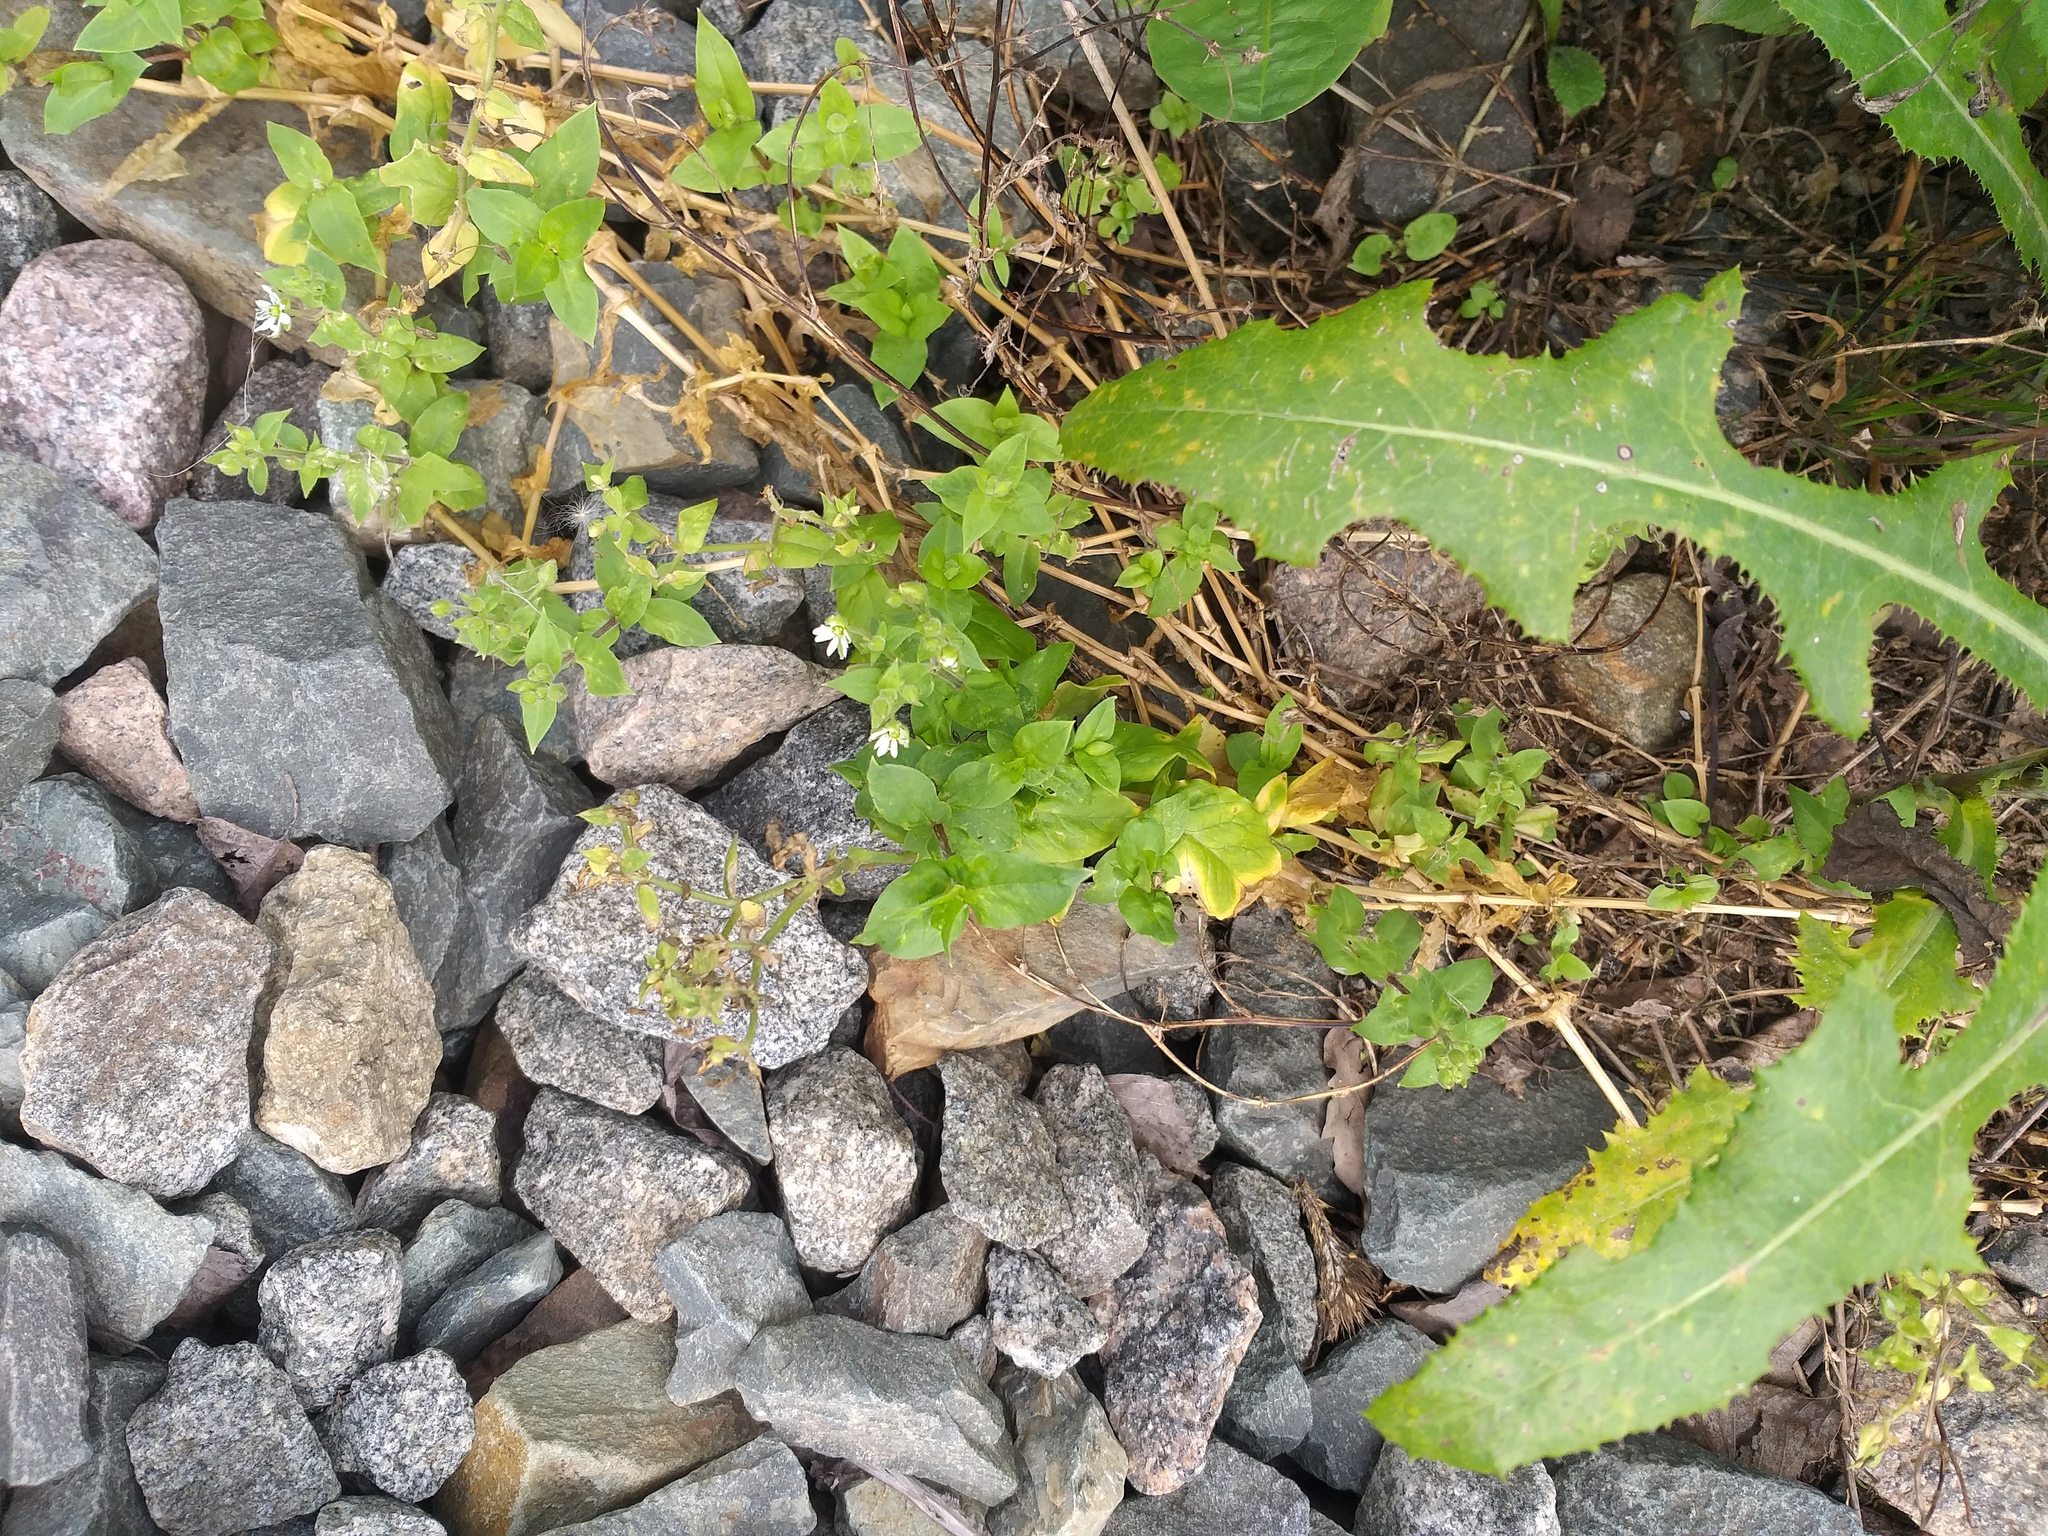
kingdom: Plantae
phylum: Tracheophyta
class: Magnoliopsida
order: Caryophyllales
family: Caryophyllaceae
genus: Stellaria
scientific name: Stellaria aquatica
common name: Water chickweed
